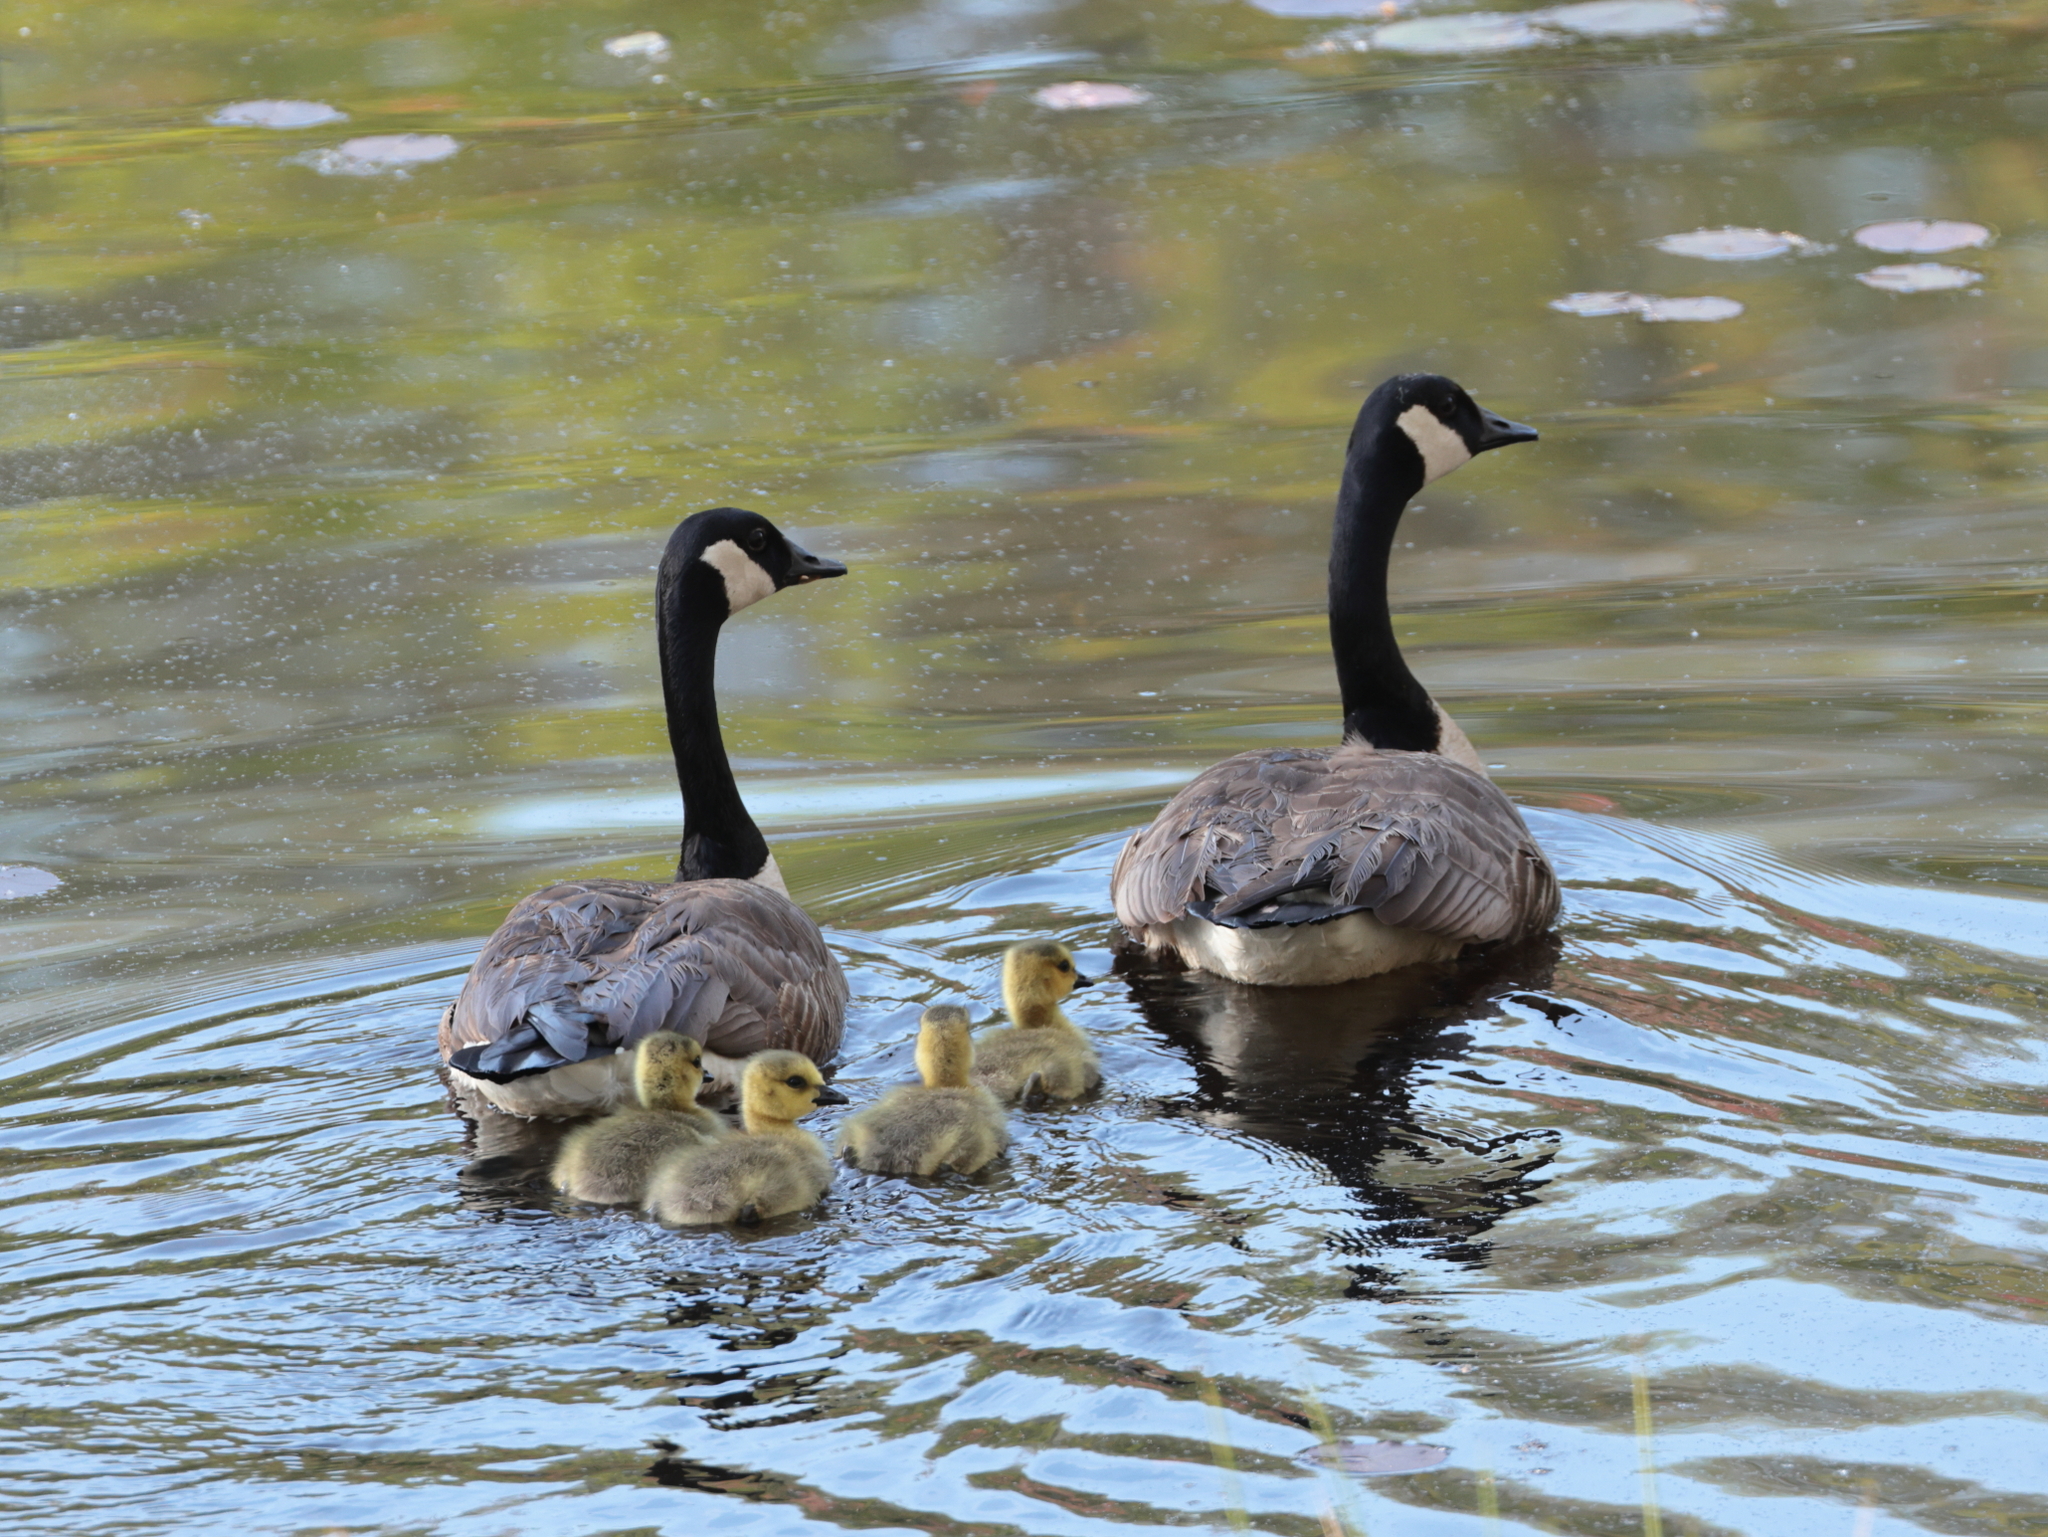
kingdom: Animalia
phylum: Chordata
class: Aves
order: Anseriformes
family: Anatidae
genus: Branta
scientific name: Branta canadensis
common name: Canada goose
